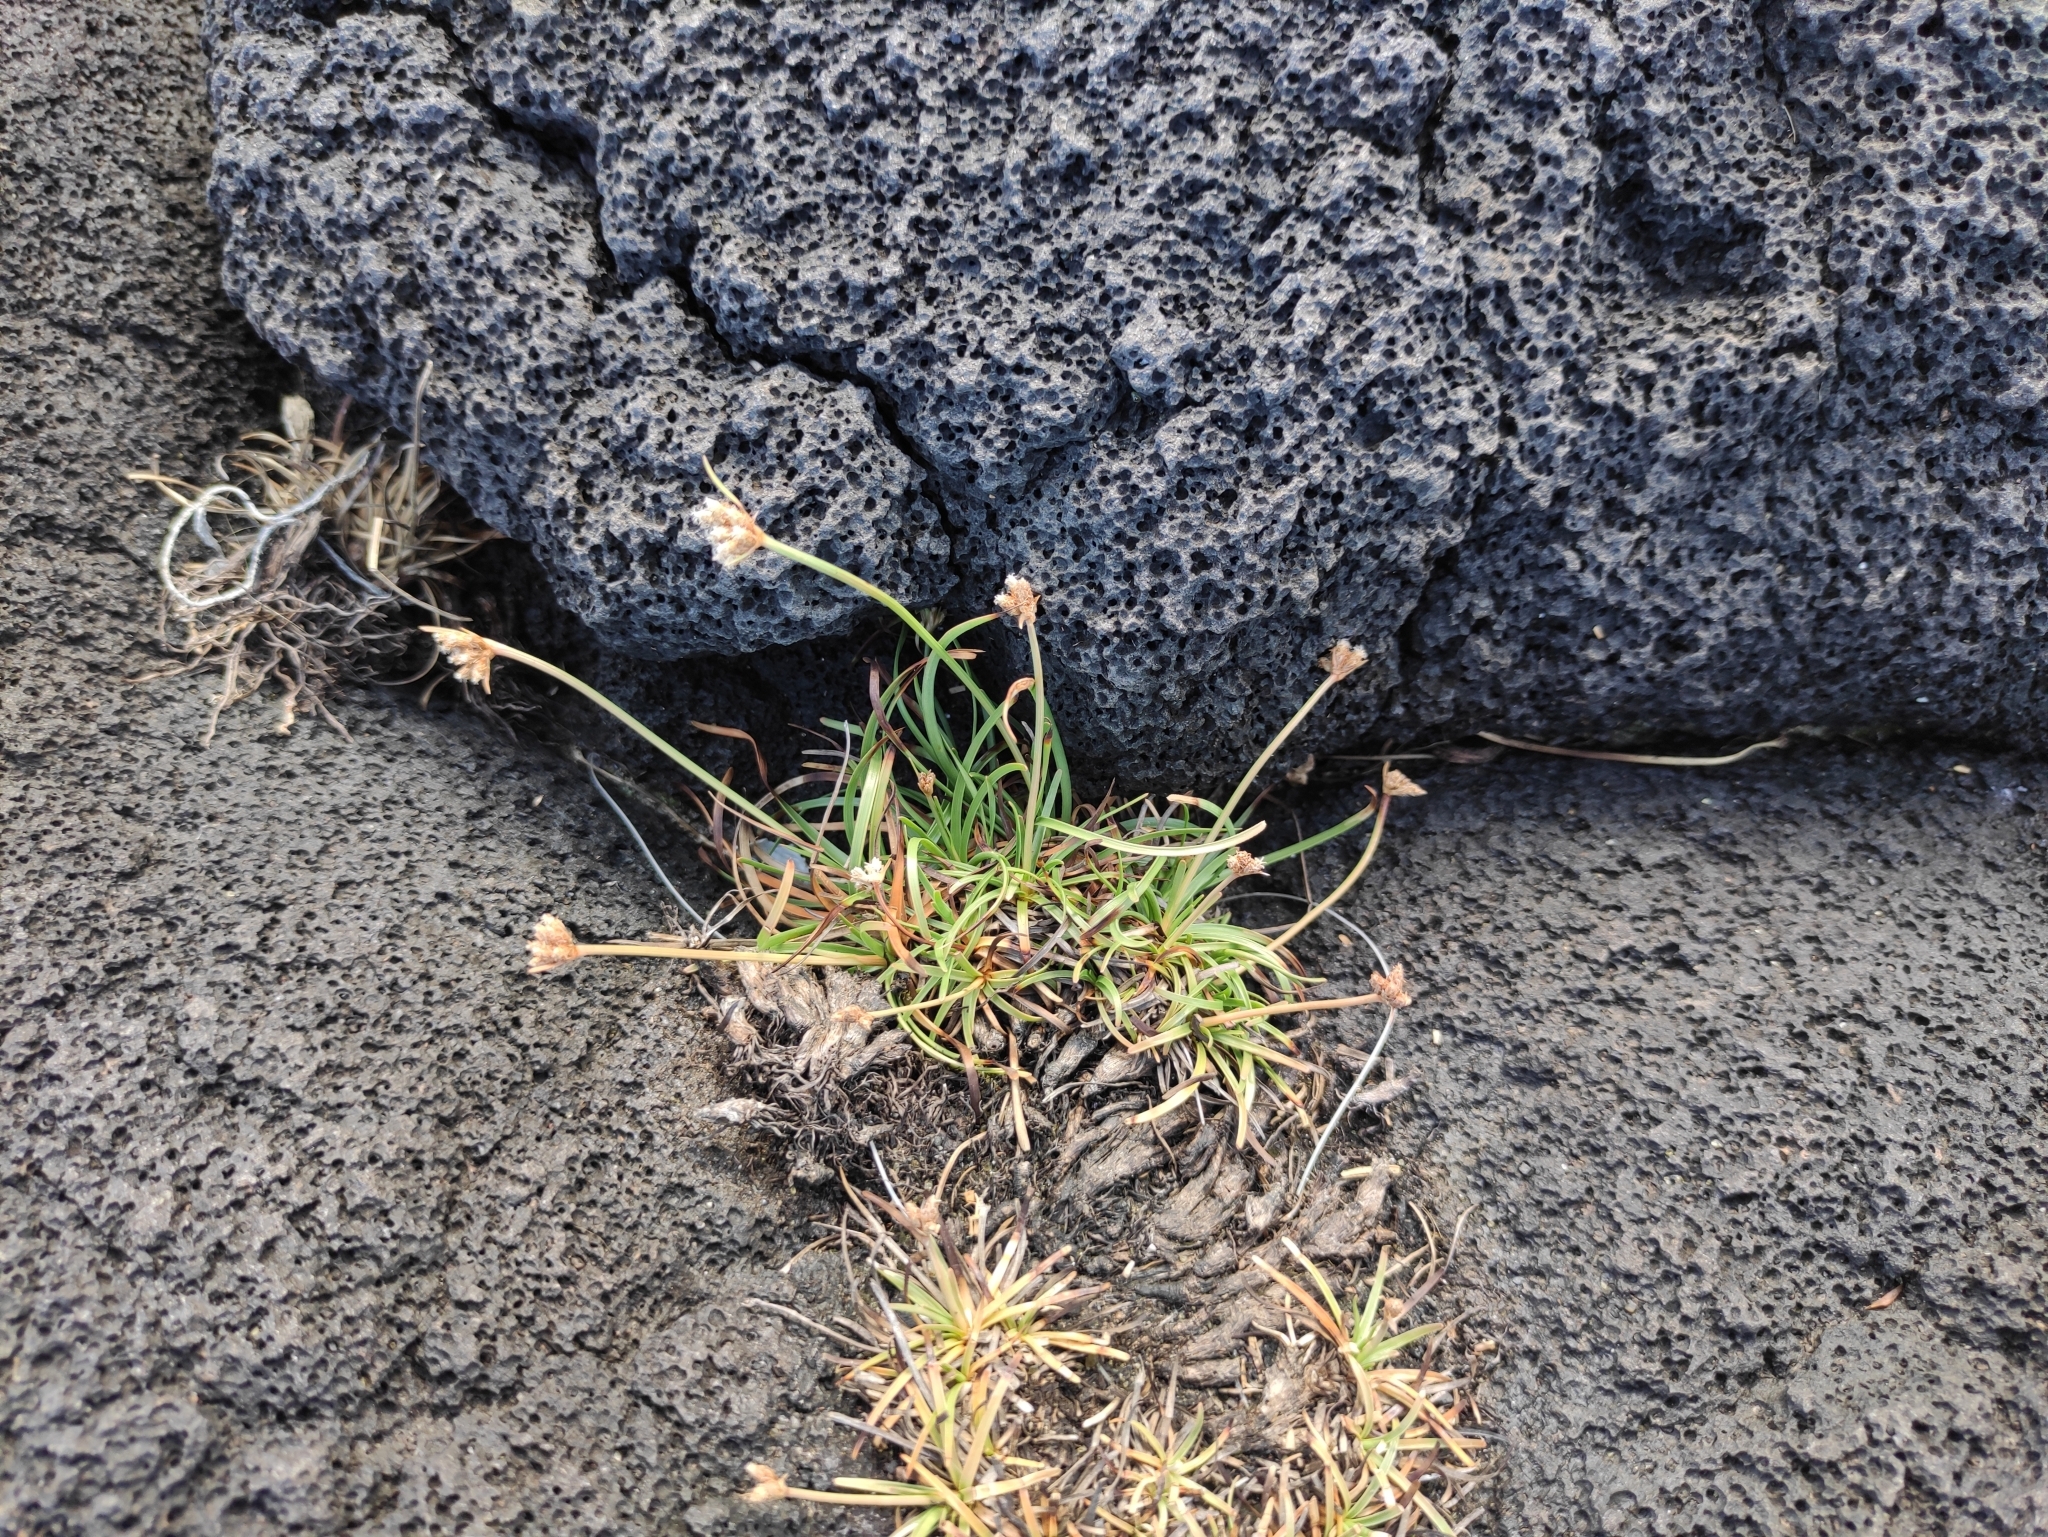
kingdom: Plantae
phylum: Tracheophyta
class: Liliopsida
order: Poales
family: Cyperaceae
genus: Fimbristylis
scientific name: Fimbristylis cymosa
